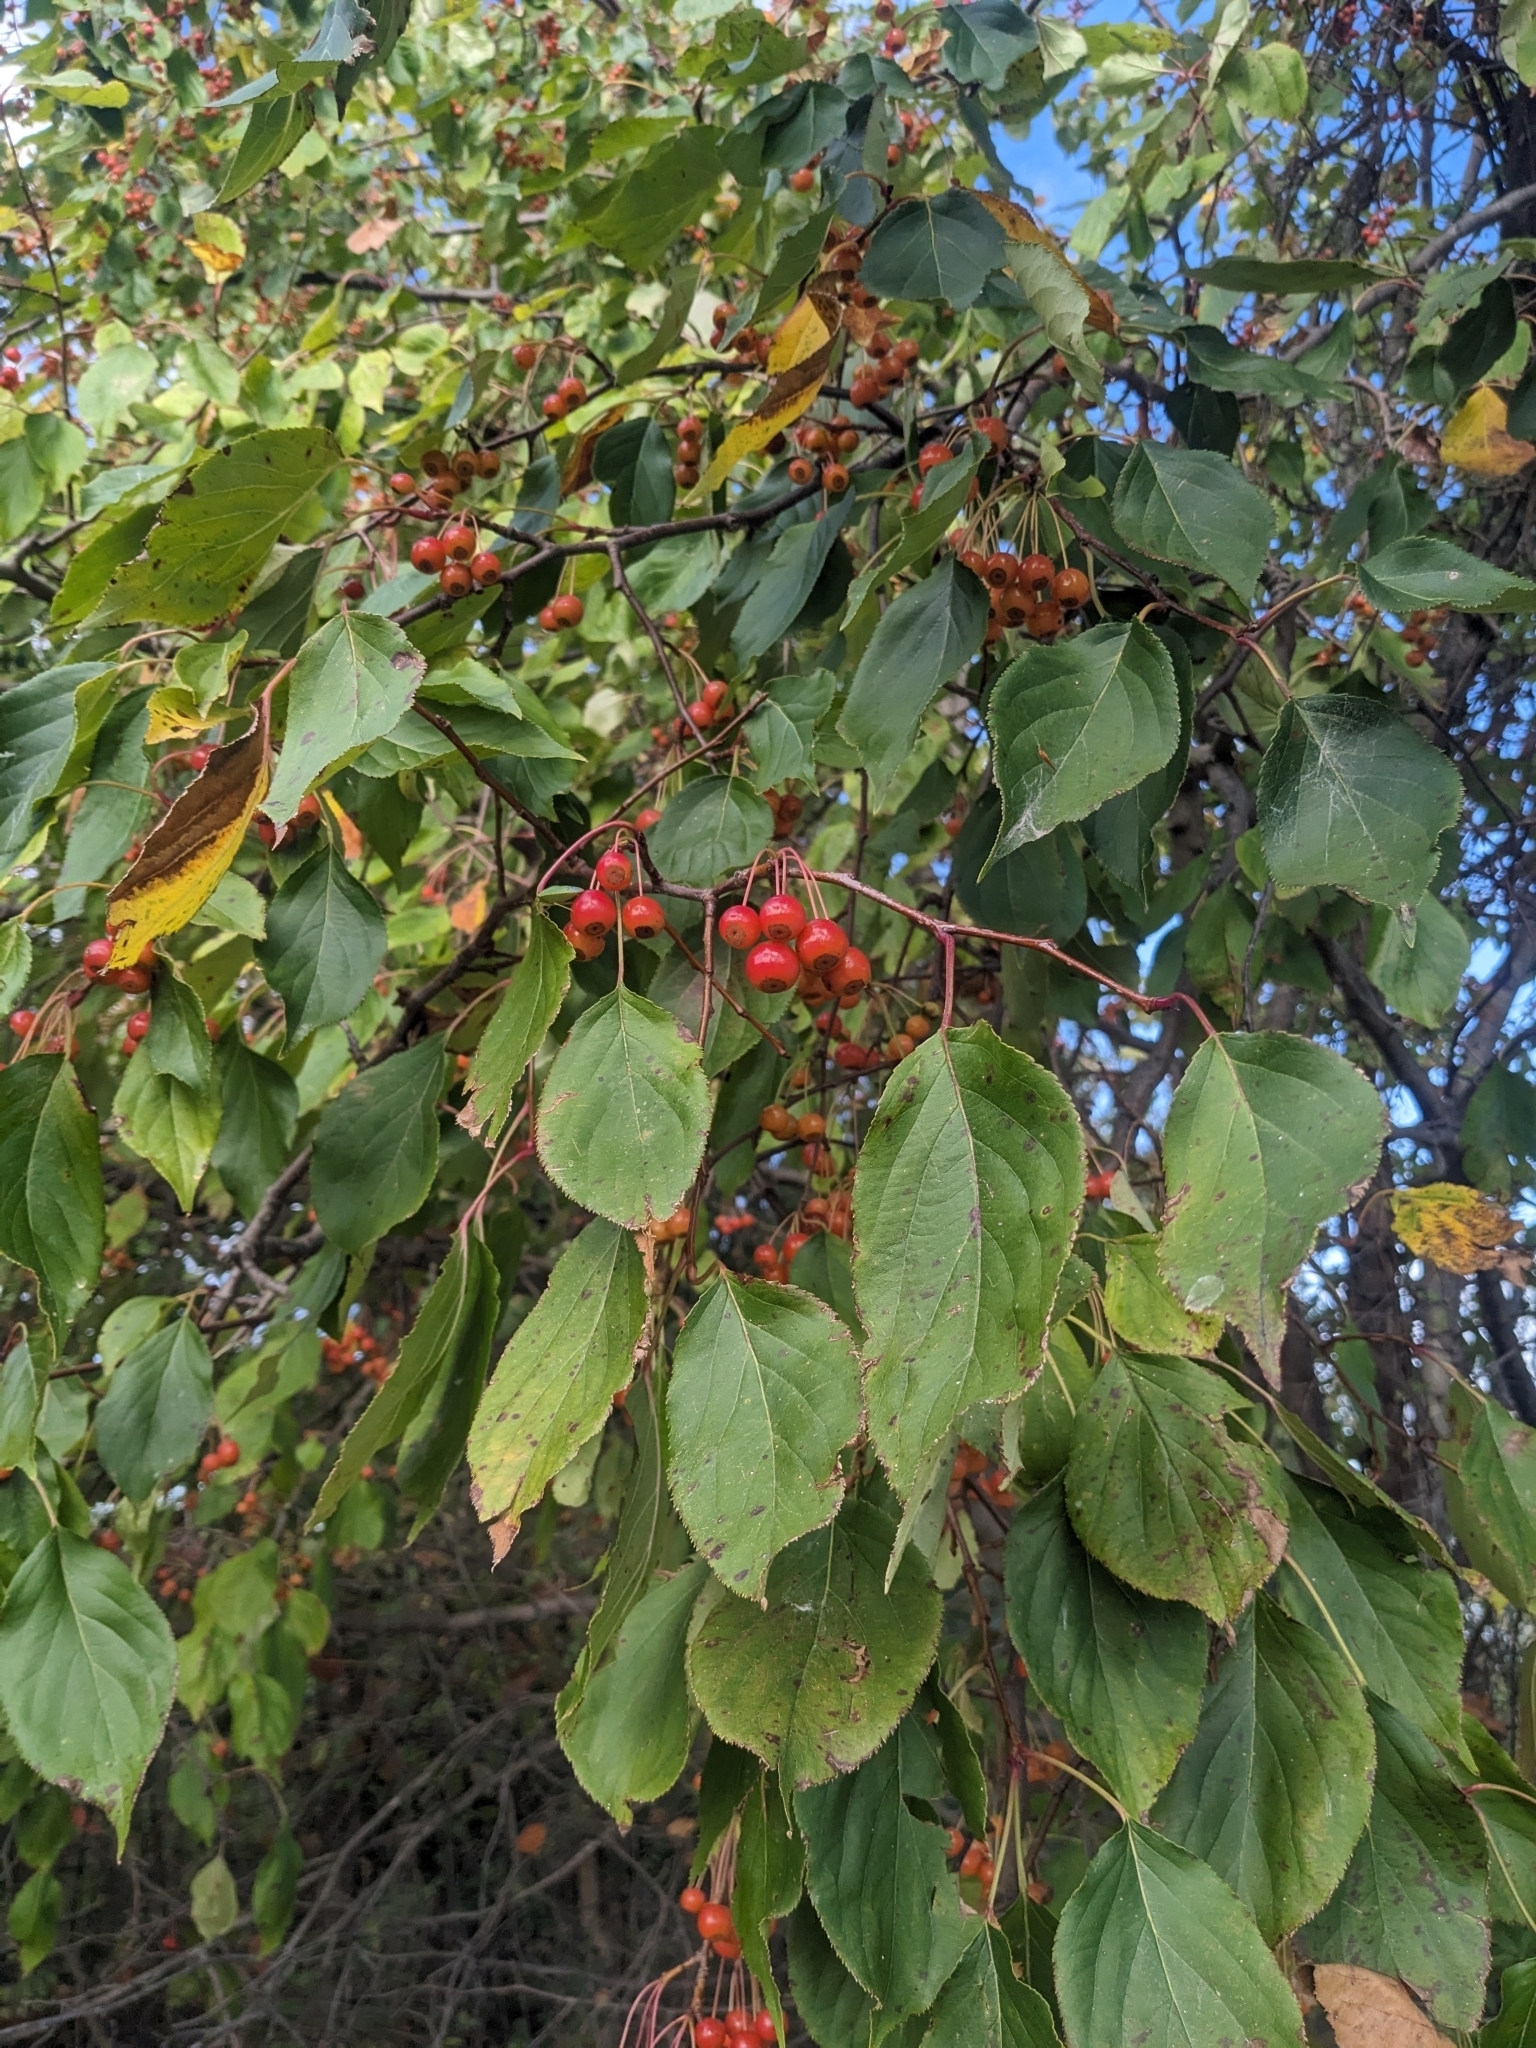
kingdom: Plantae
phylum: Tracheophyta
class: Magnoliopsida
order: Rosales
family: Rosaceae
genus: Aronia
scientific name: Aronia arbutifolia
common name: Red chokeberry
